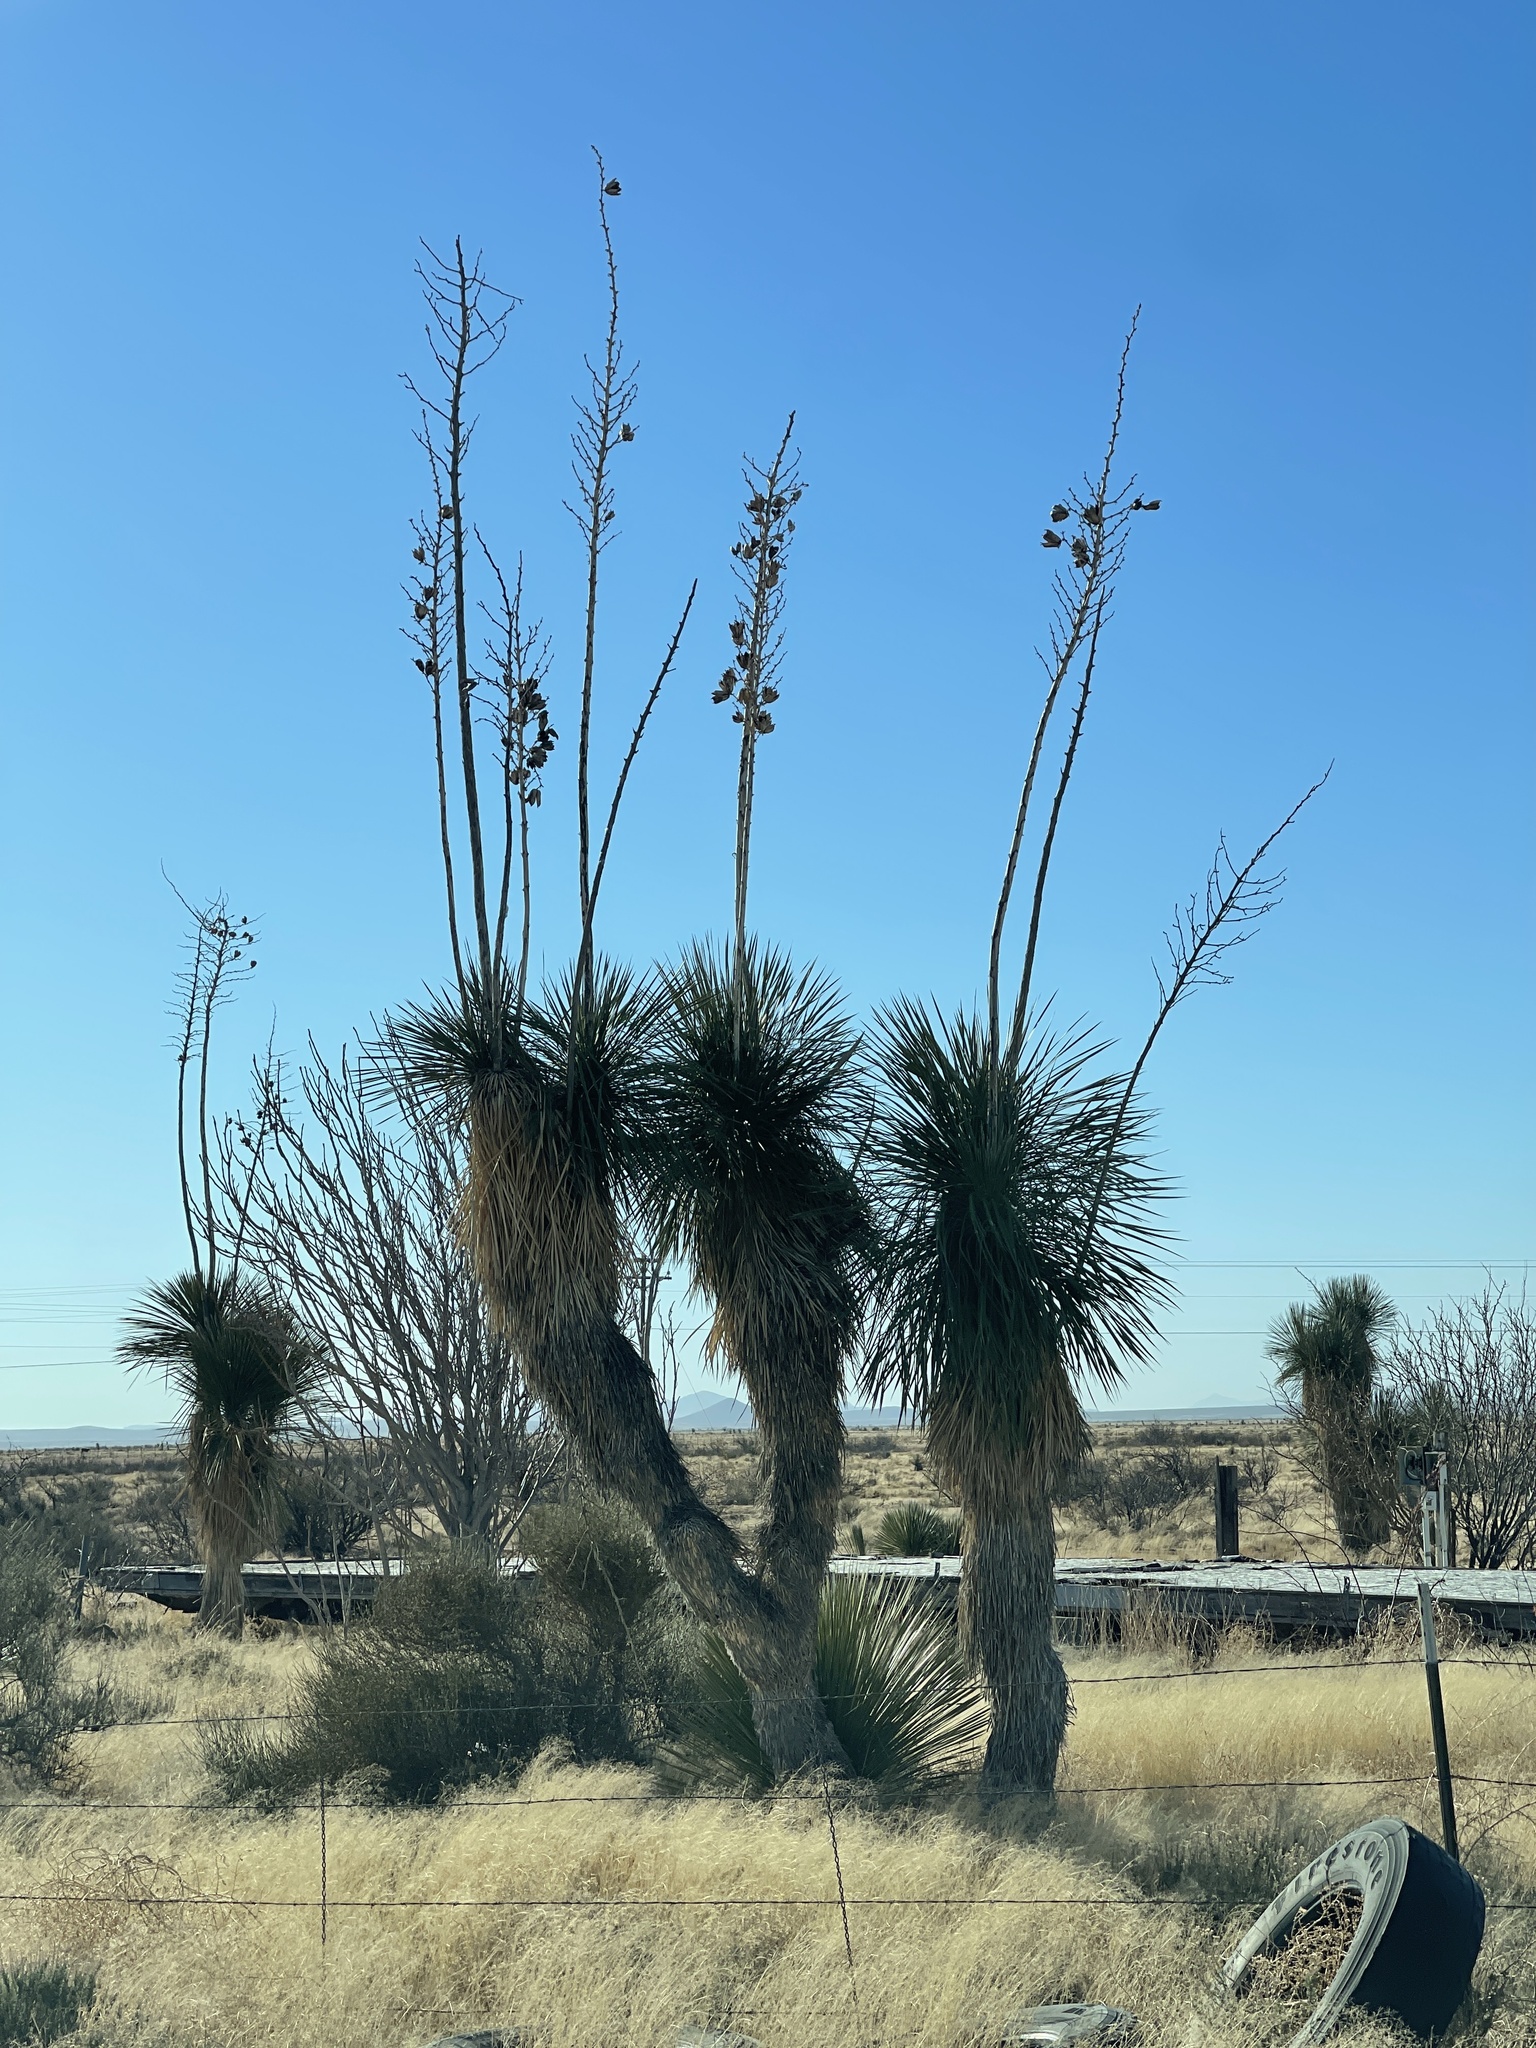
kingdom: Plantae
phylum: Tracheophyta
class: Liliopsida
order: Asparagales
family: Asparagaceae
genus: Yucca
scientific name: Yucca elata
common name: Palmella
